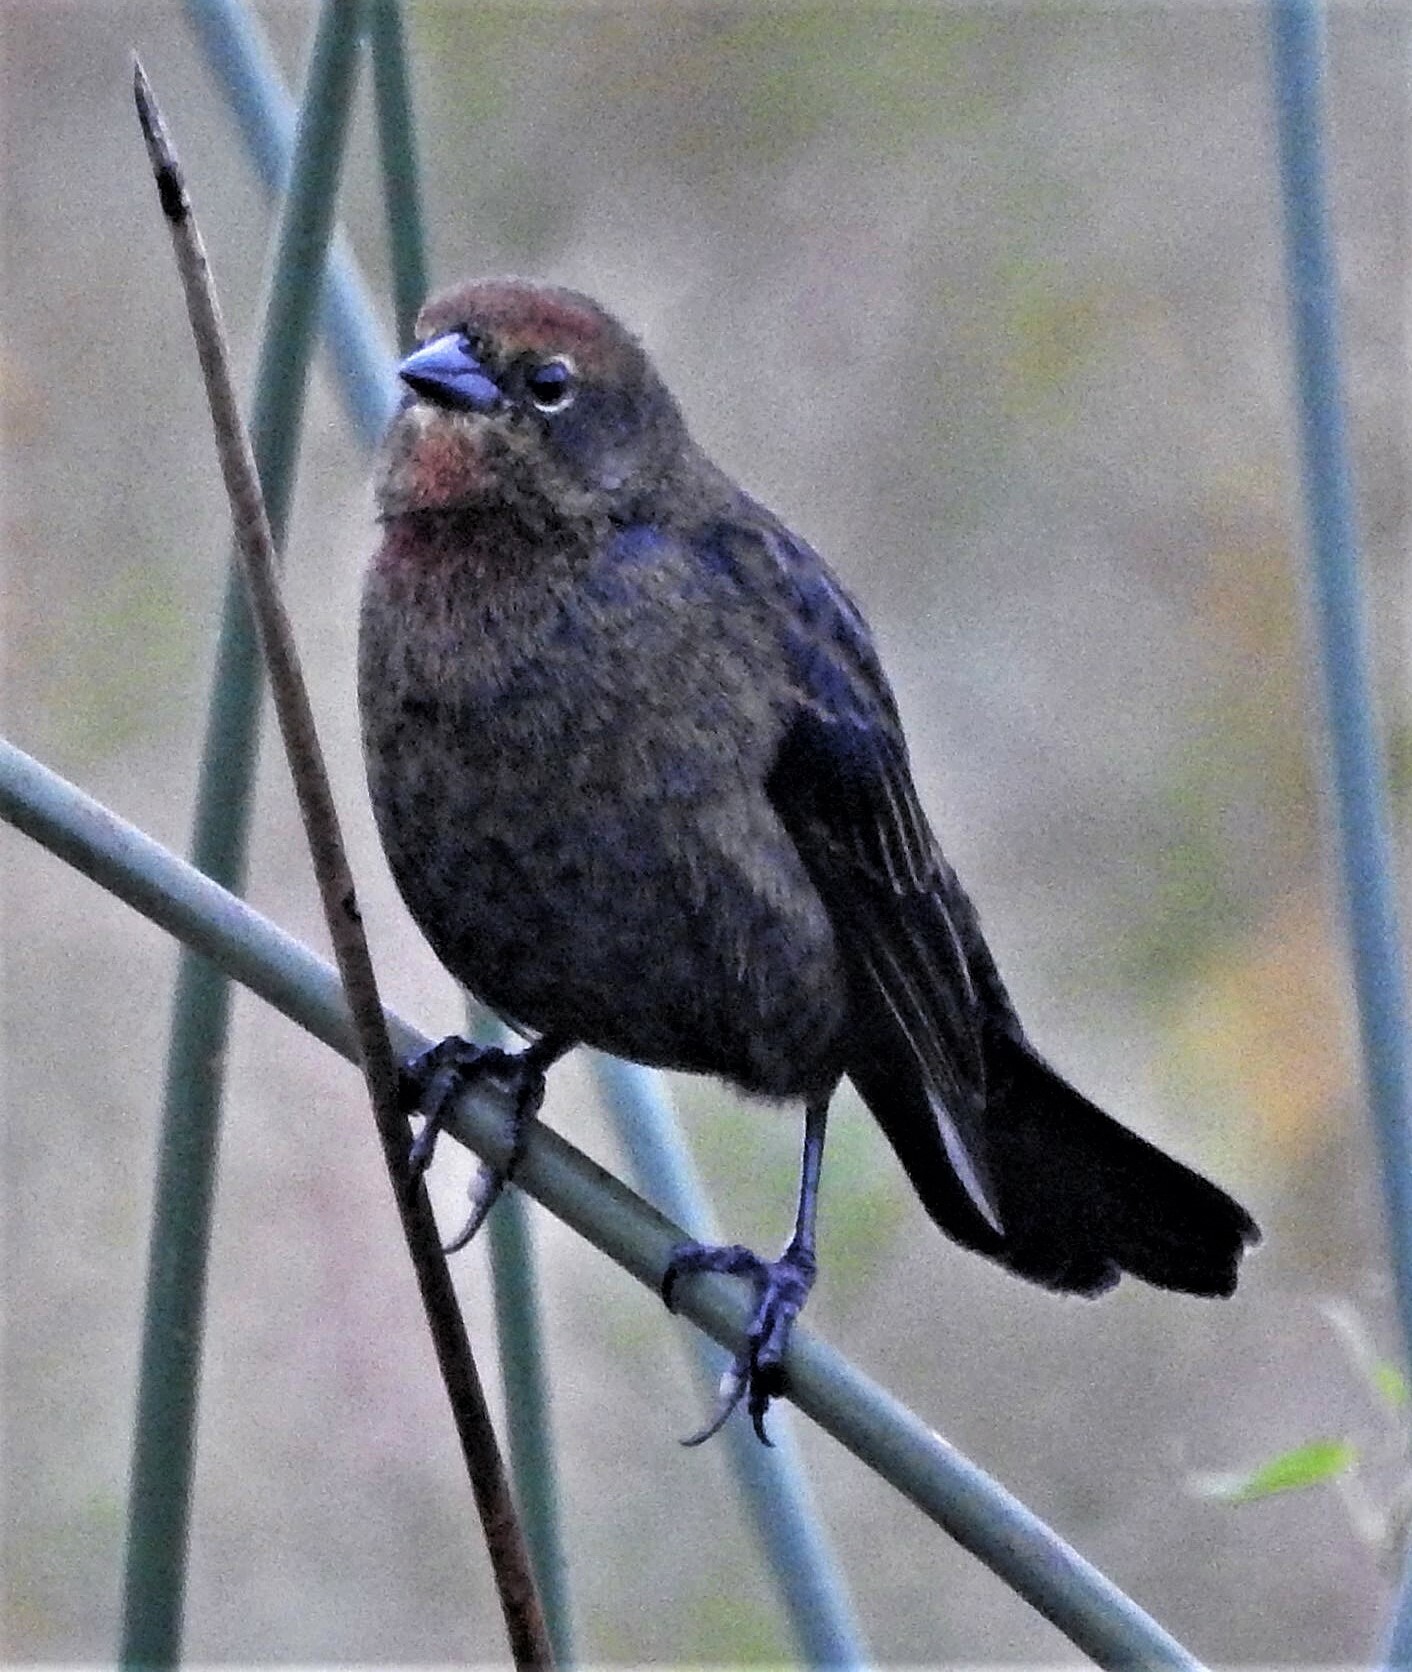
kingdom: Animalia
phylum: Chordata
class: Aves
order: Passeriformes
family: Icteridae
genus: Chrysomus
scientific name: Chrysomus ruficapillus
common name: Chestnut-capped blackbird
